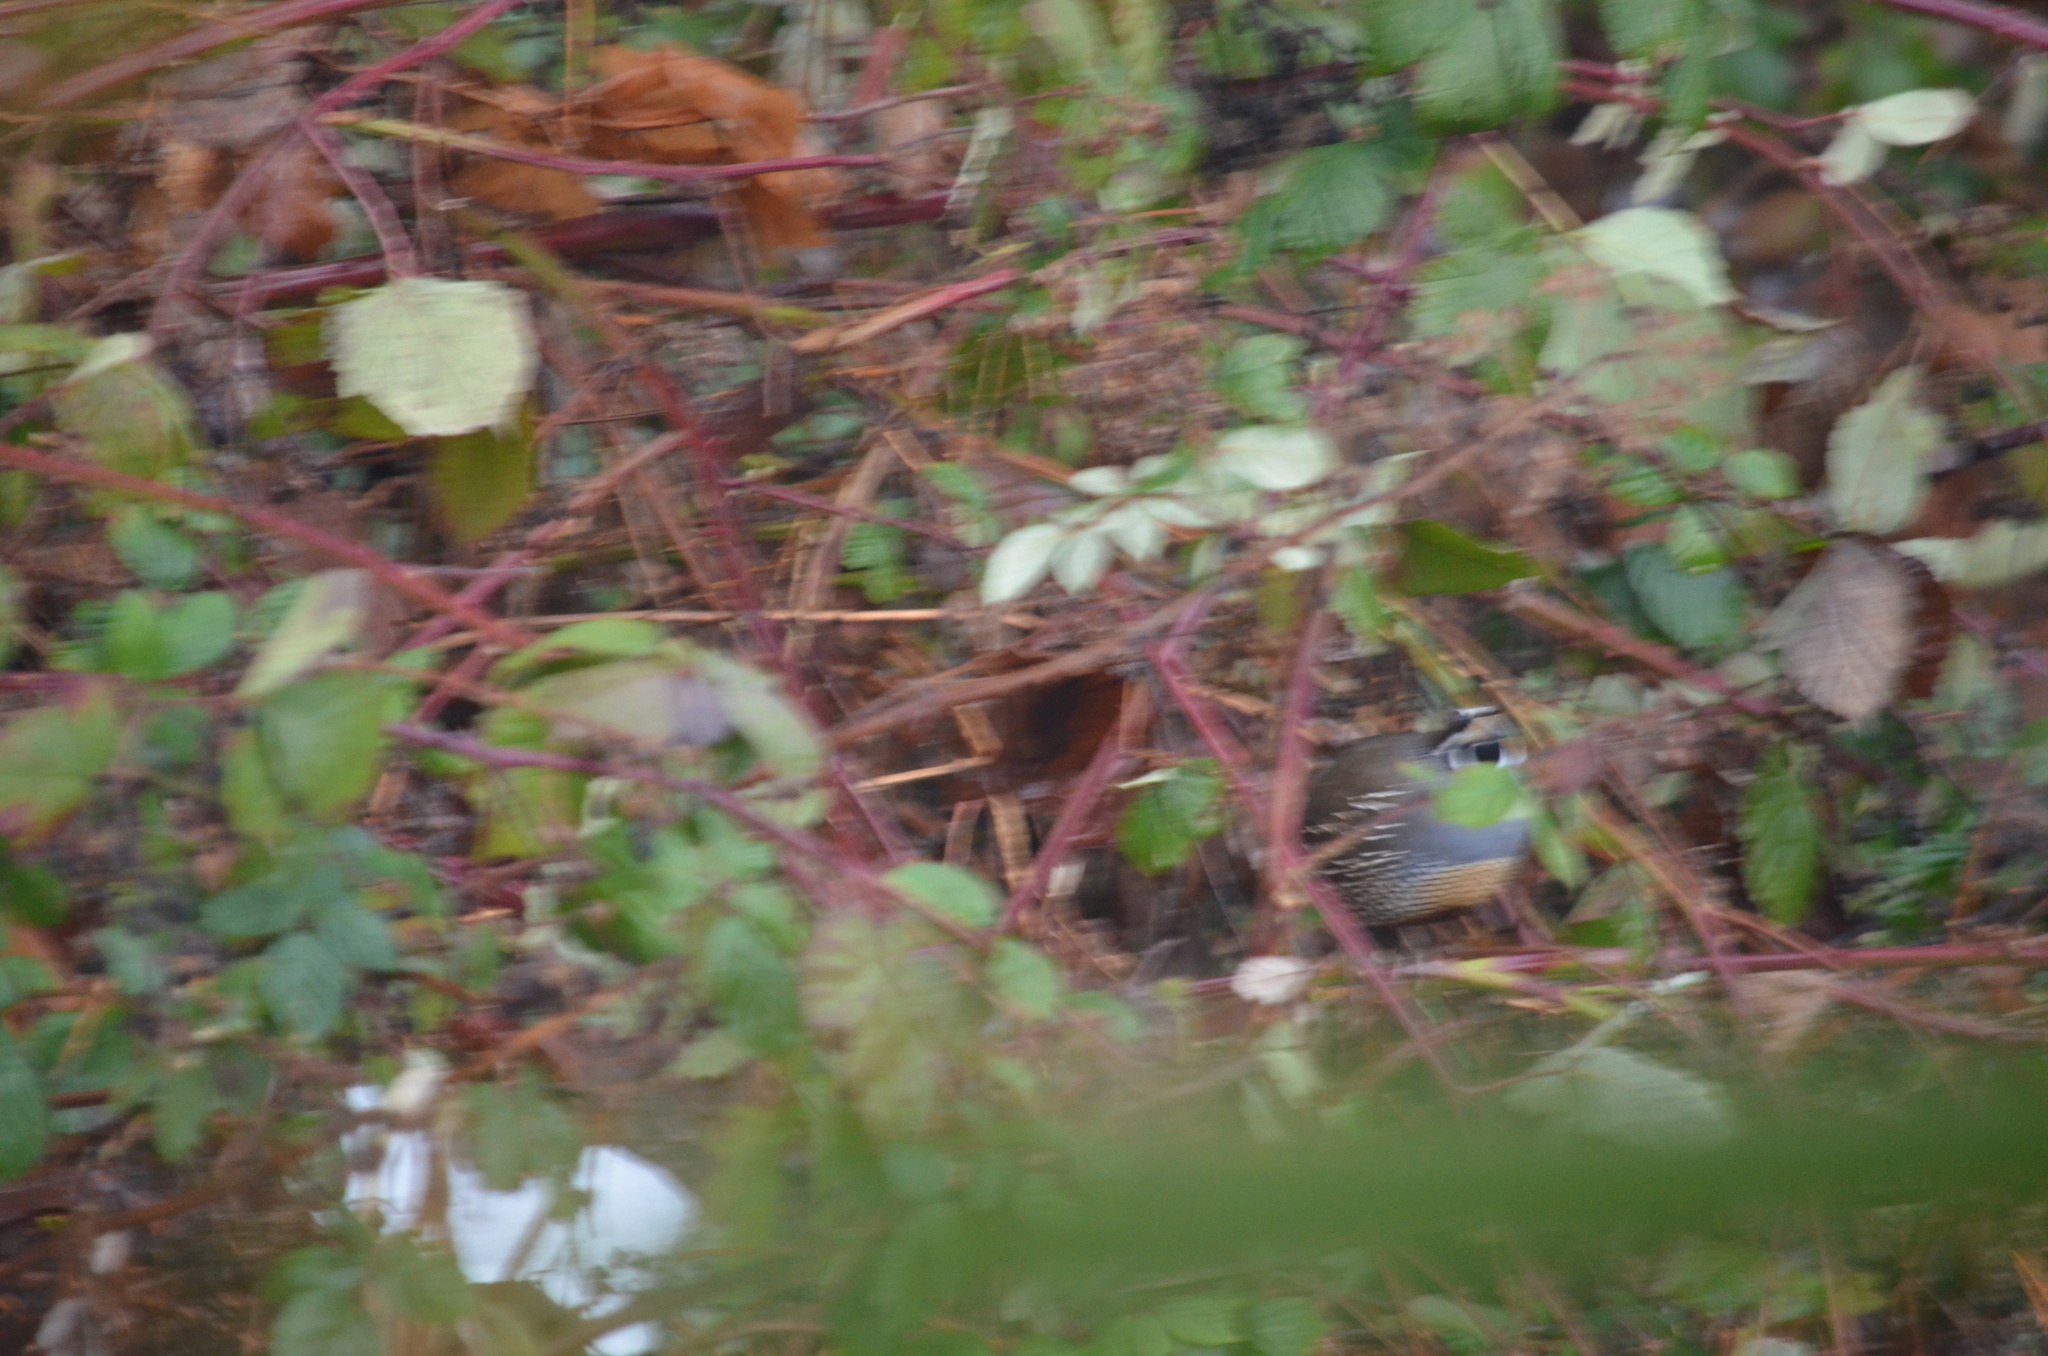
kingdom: Animalia
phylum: Chordata
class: Aves
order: Galliformes
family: Odontophoridae
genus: Callipepla
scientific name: Callipepla californica
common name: California quail
